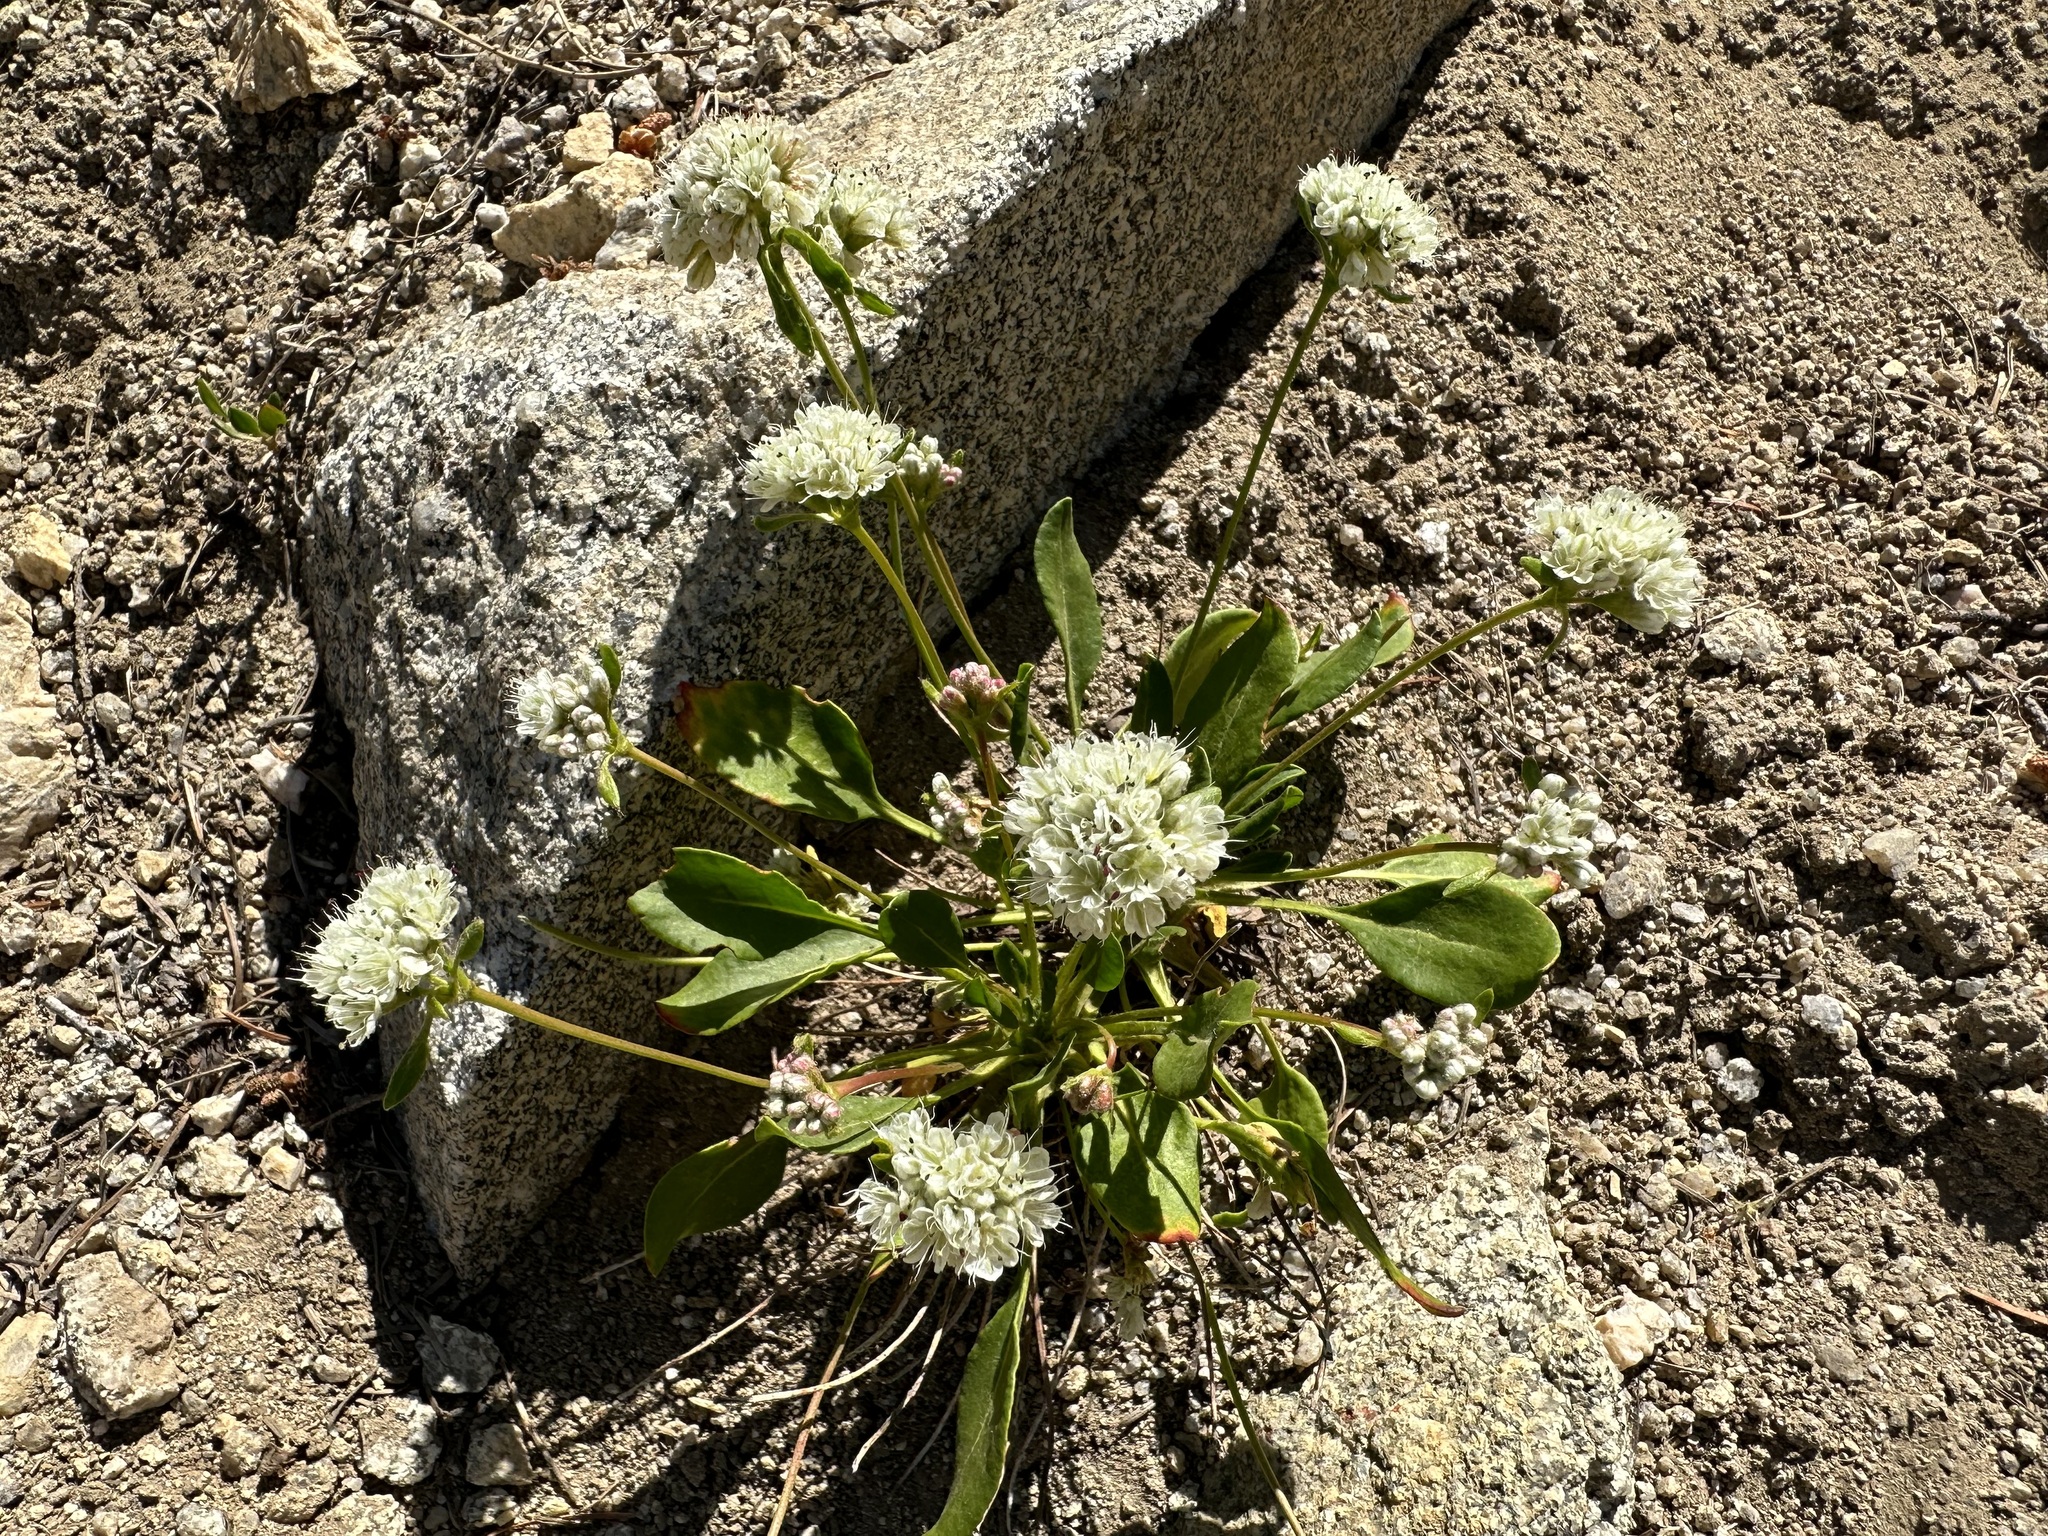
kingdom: Plantae
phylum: Tracheophyta
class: Magnoliopsida
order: Caryophyllales
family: Polygonaceae
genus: Eriogonum
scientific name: Eriogonum pyrolifolium
